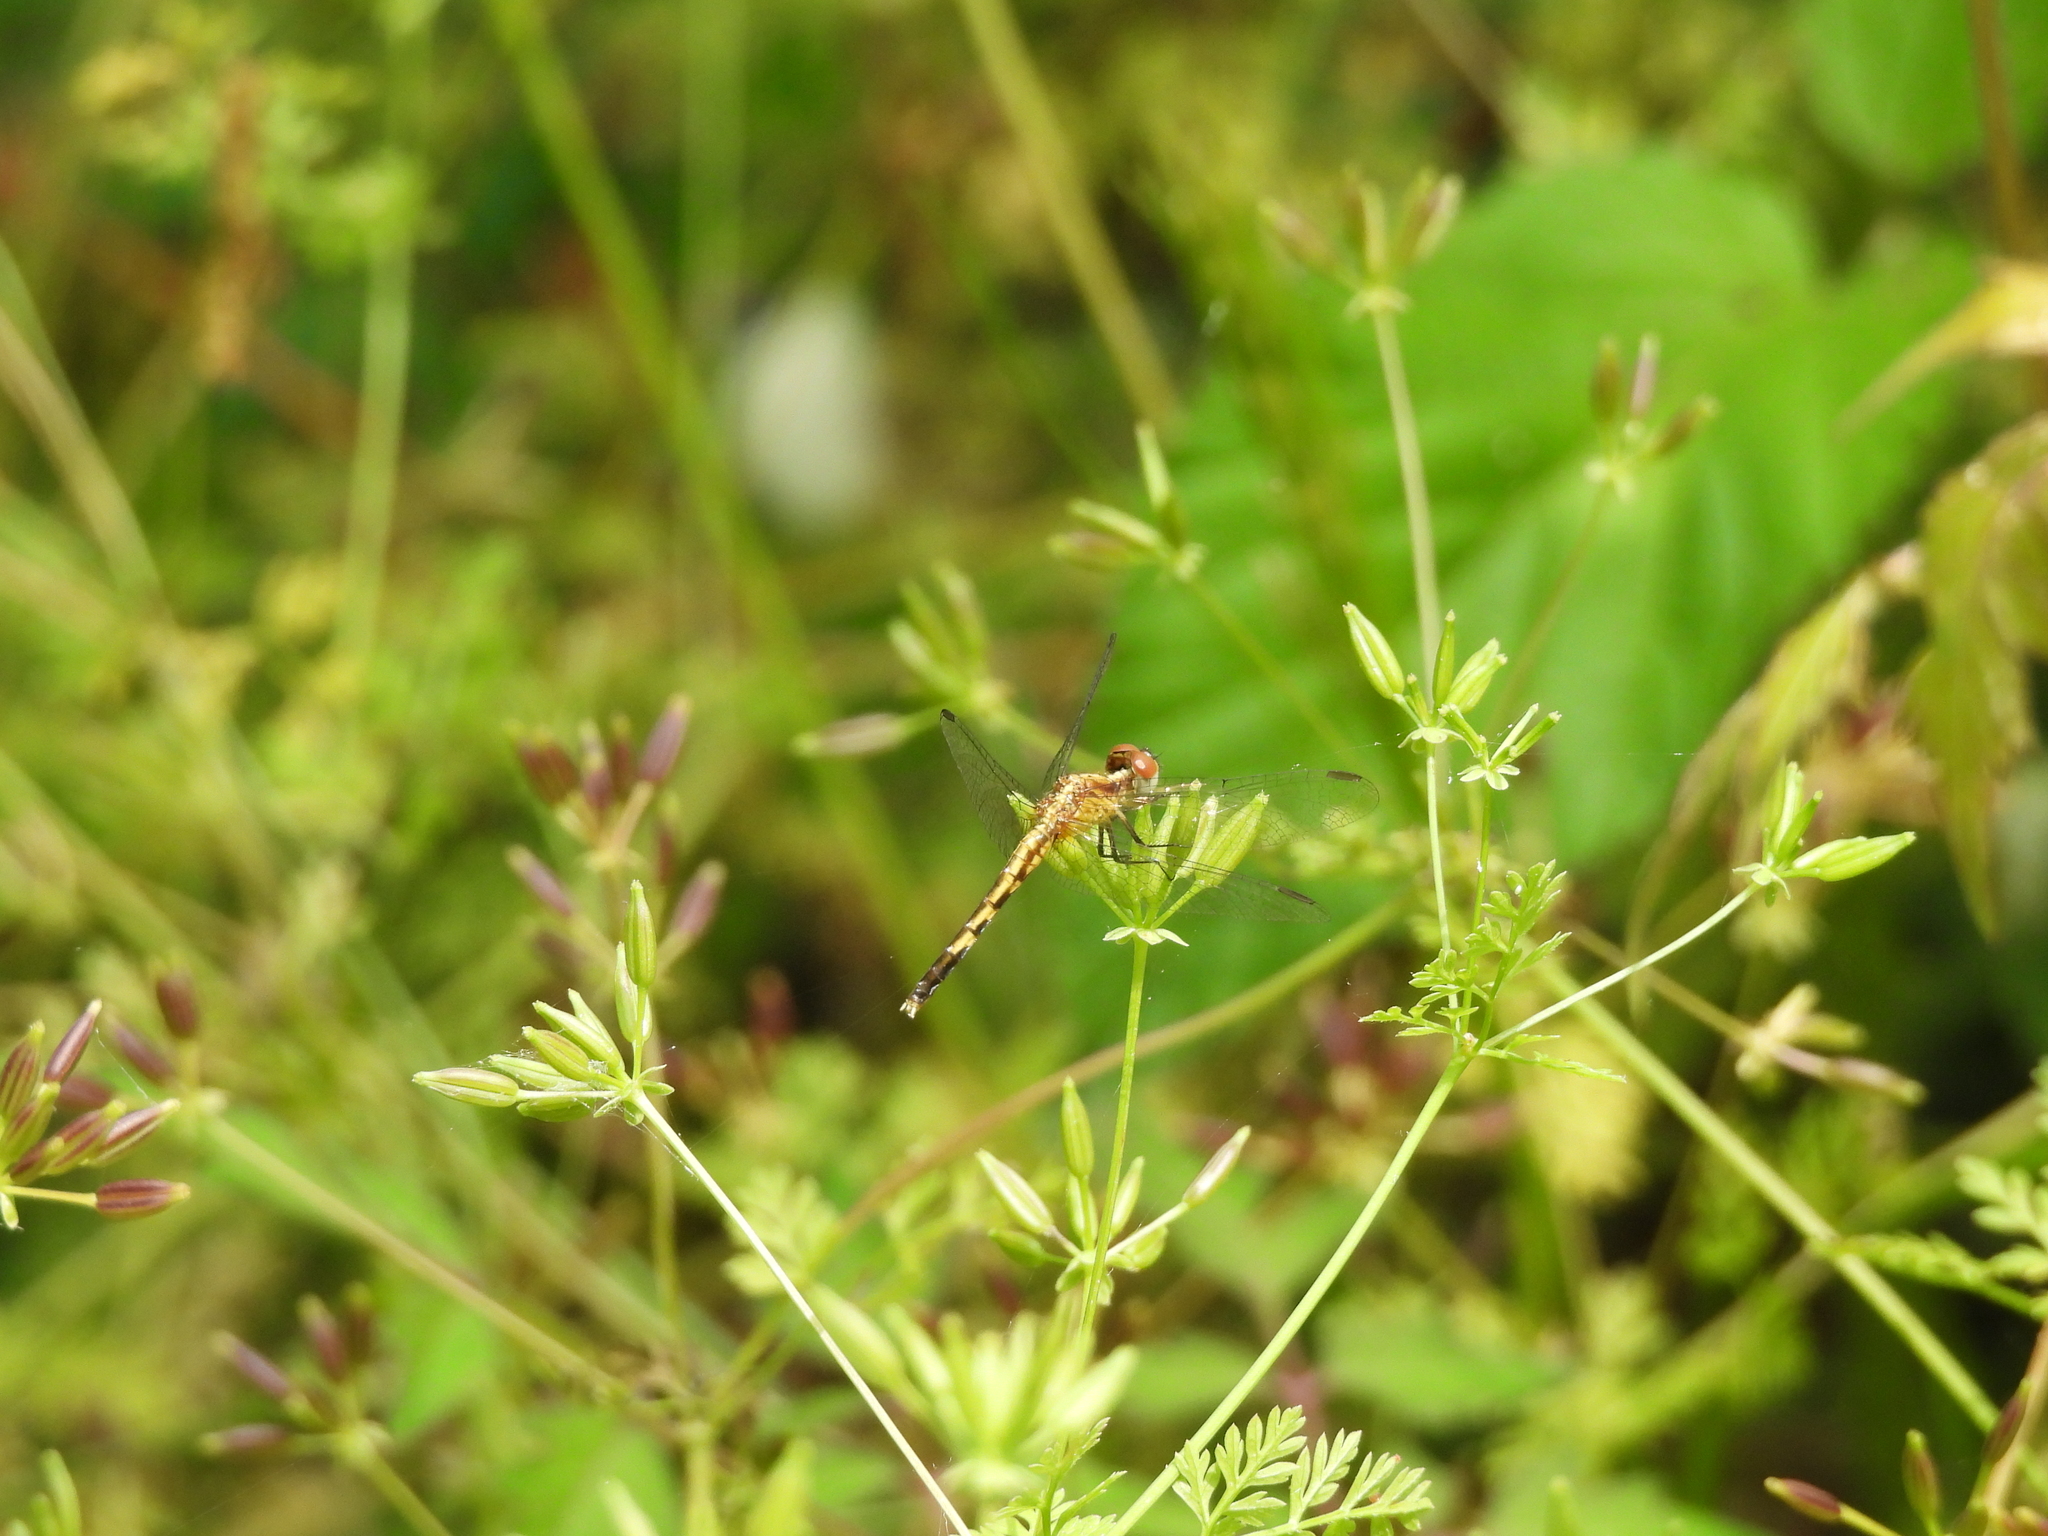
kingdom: Animalia
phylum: Arthropoda
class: Insecta
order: Odonata
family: Libellulidae
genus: Erythrodiplax
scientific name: Erythrodiplax minuscula
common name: Little blue dragonlet
